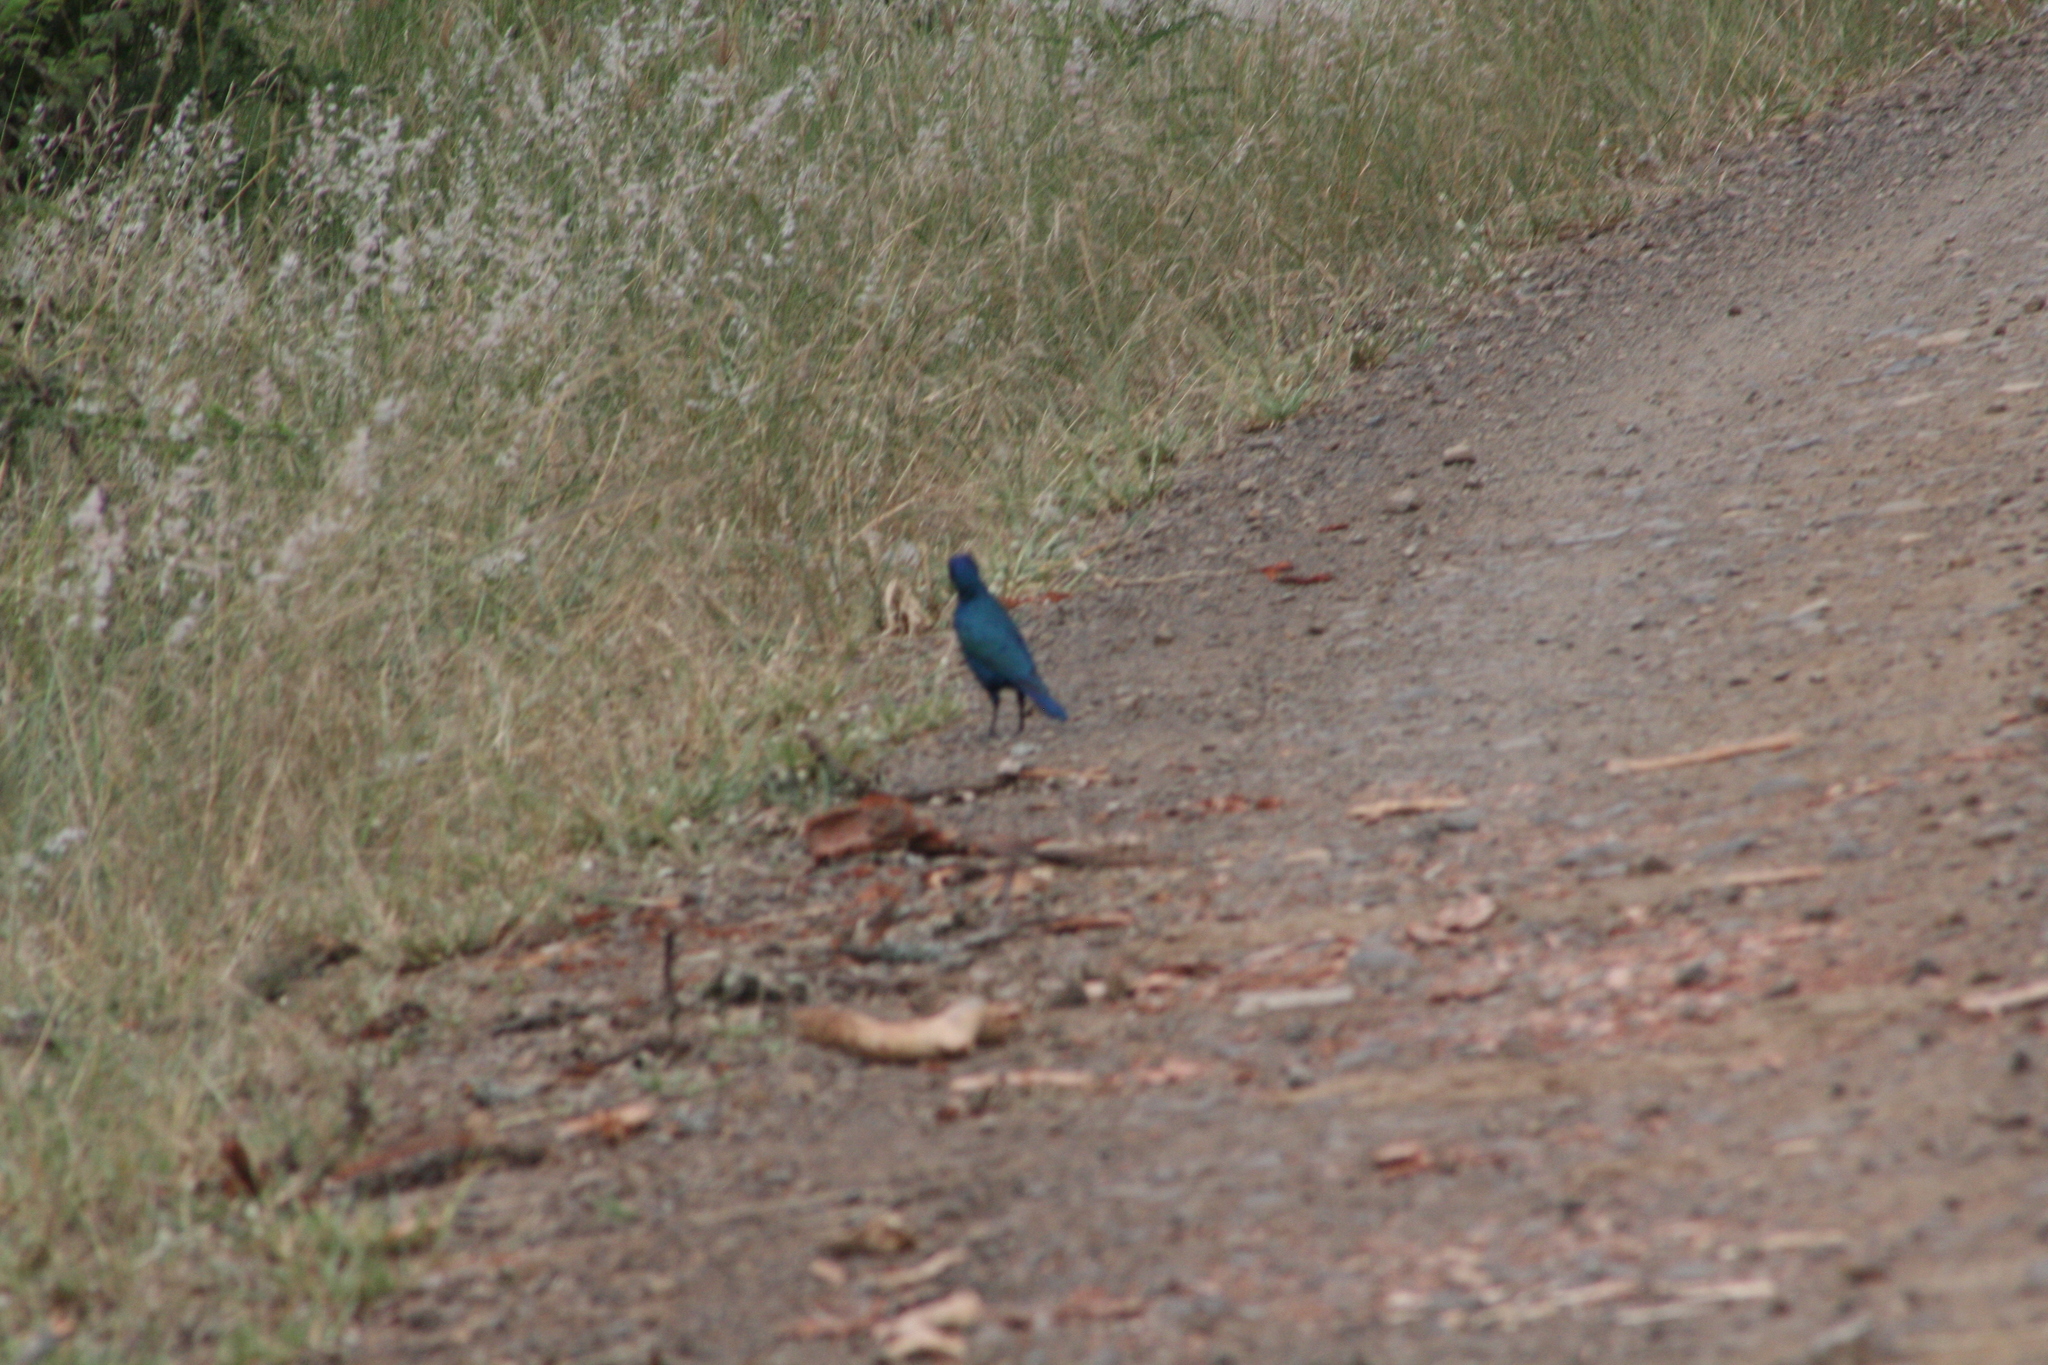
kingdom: Animalia
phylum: Chordata
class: Aves
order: Passeriformes
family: Sturnidae
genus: Lamprotornis
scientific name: Lamprotornis nitens
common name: Cape starling
